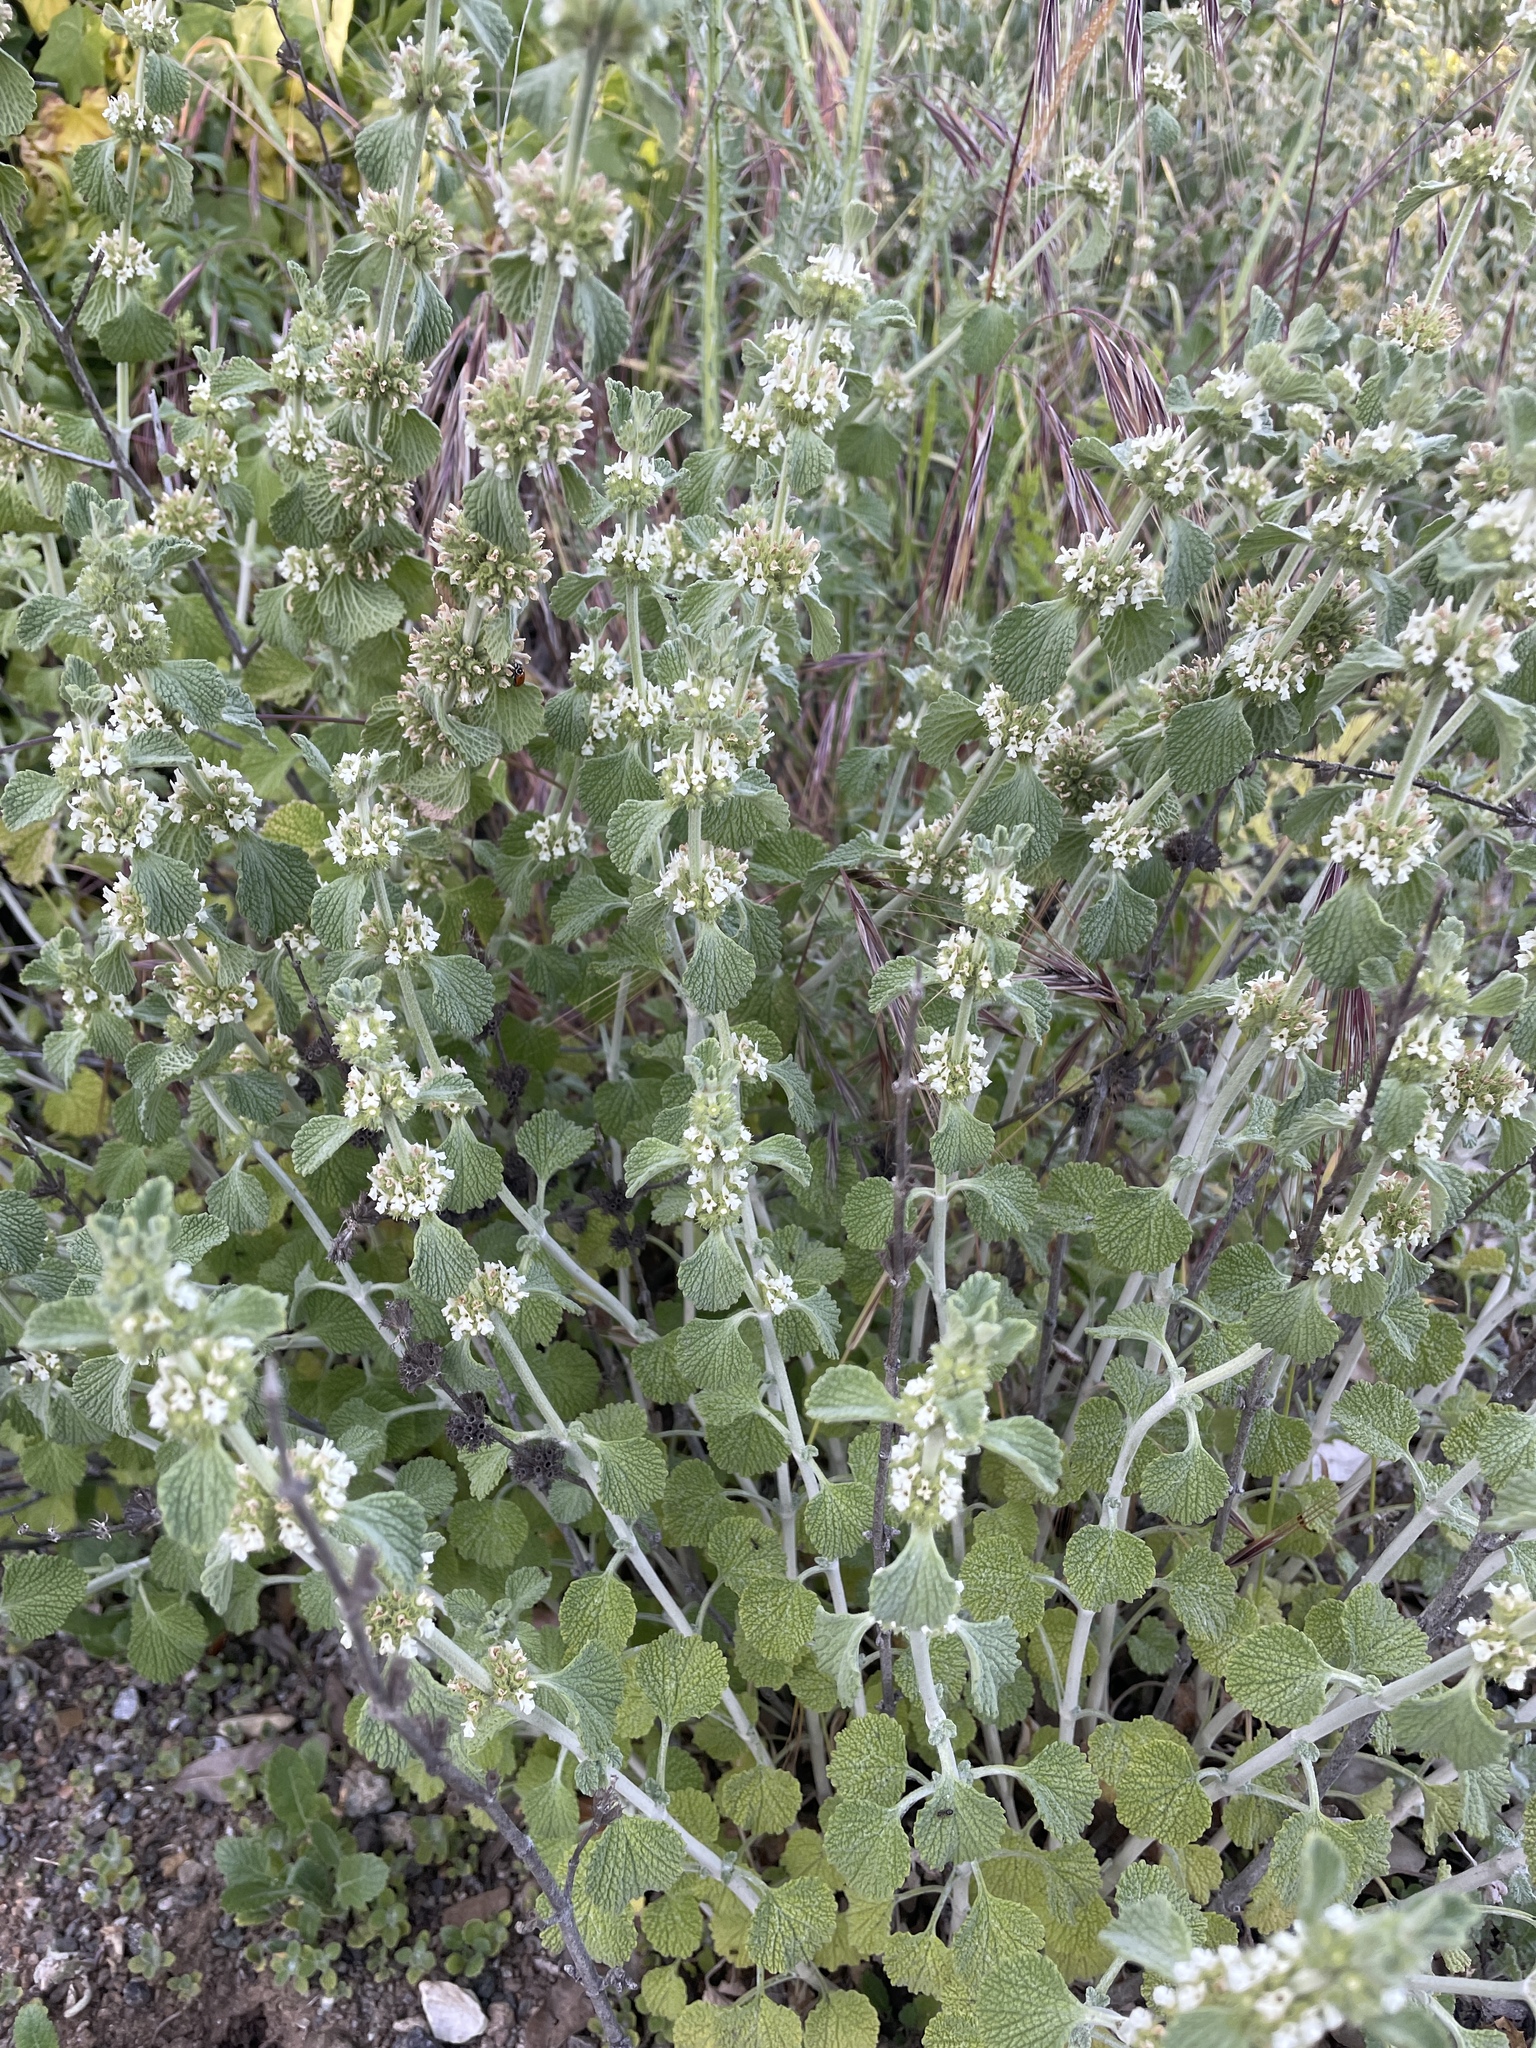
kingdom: Plantae
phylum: Tracheophyta
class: Magnoliopsida
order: Lamiales
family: Lamiaceae
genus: Marrubium
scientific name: Marrubium vulgare
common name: Horehound
